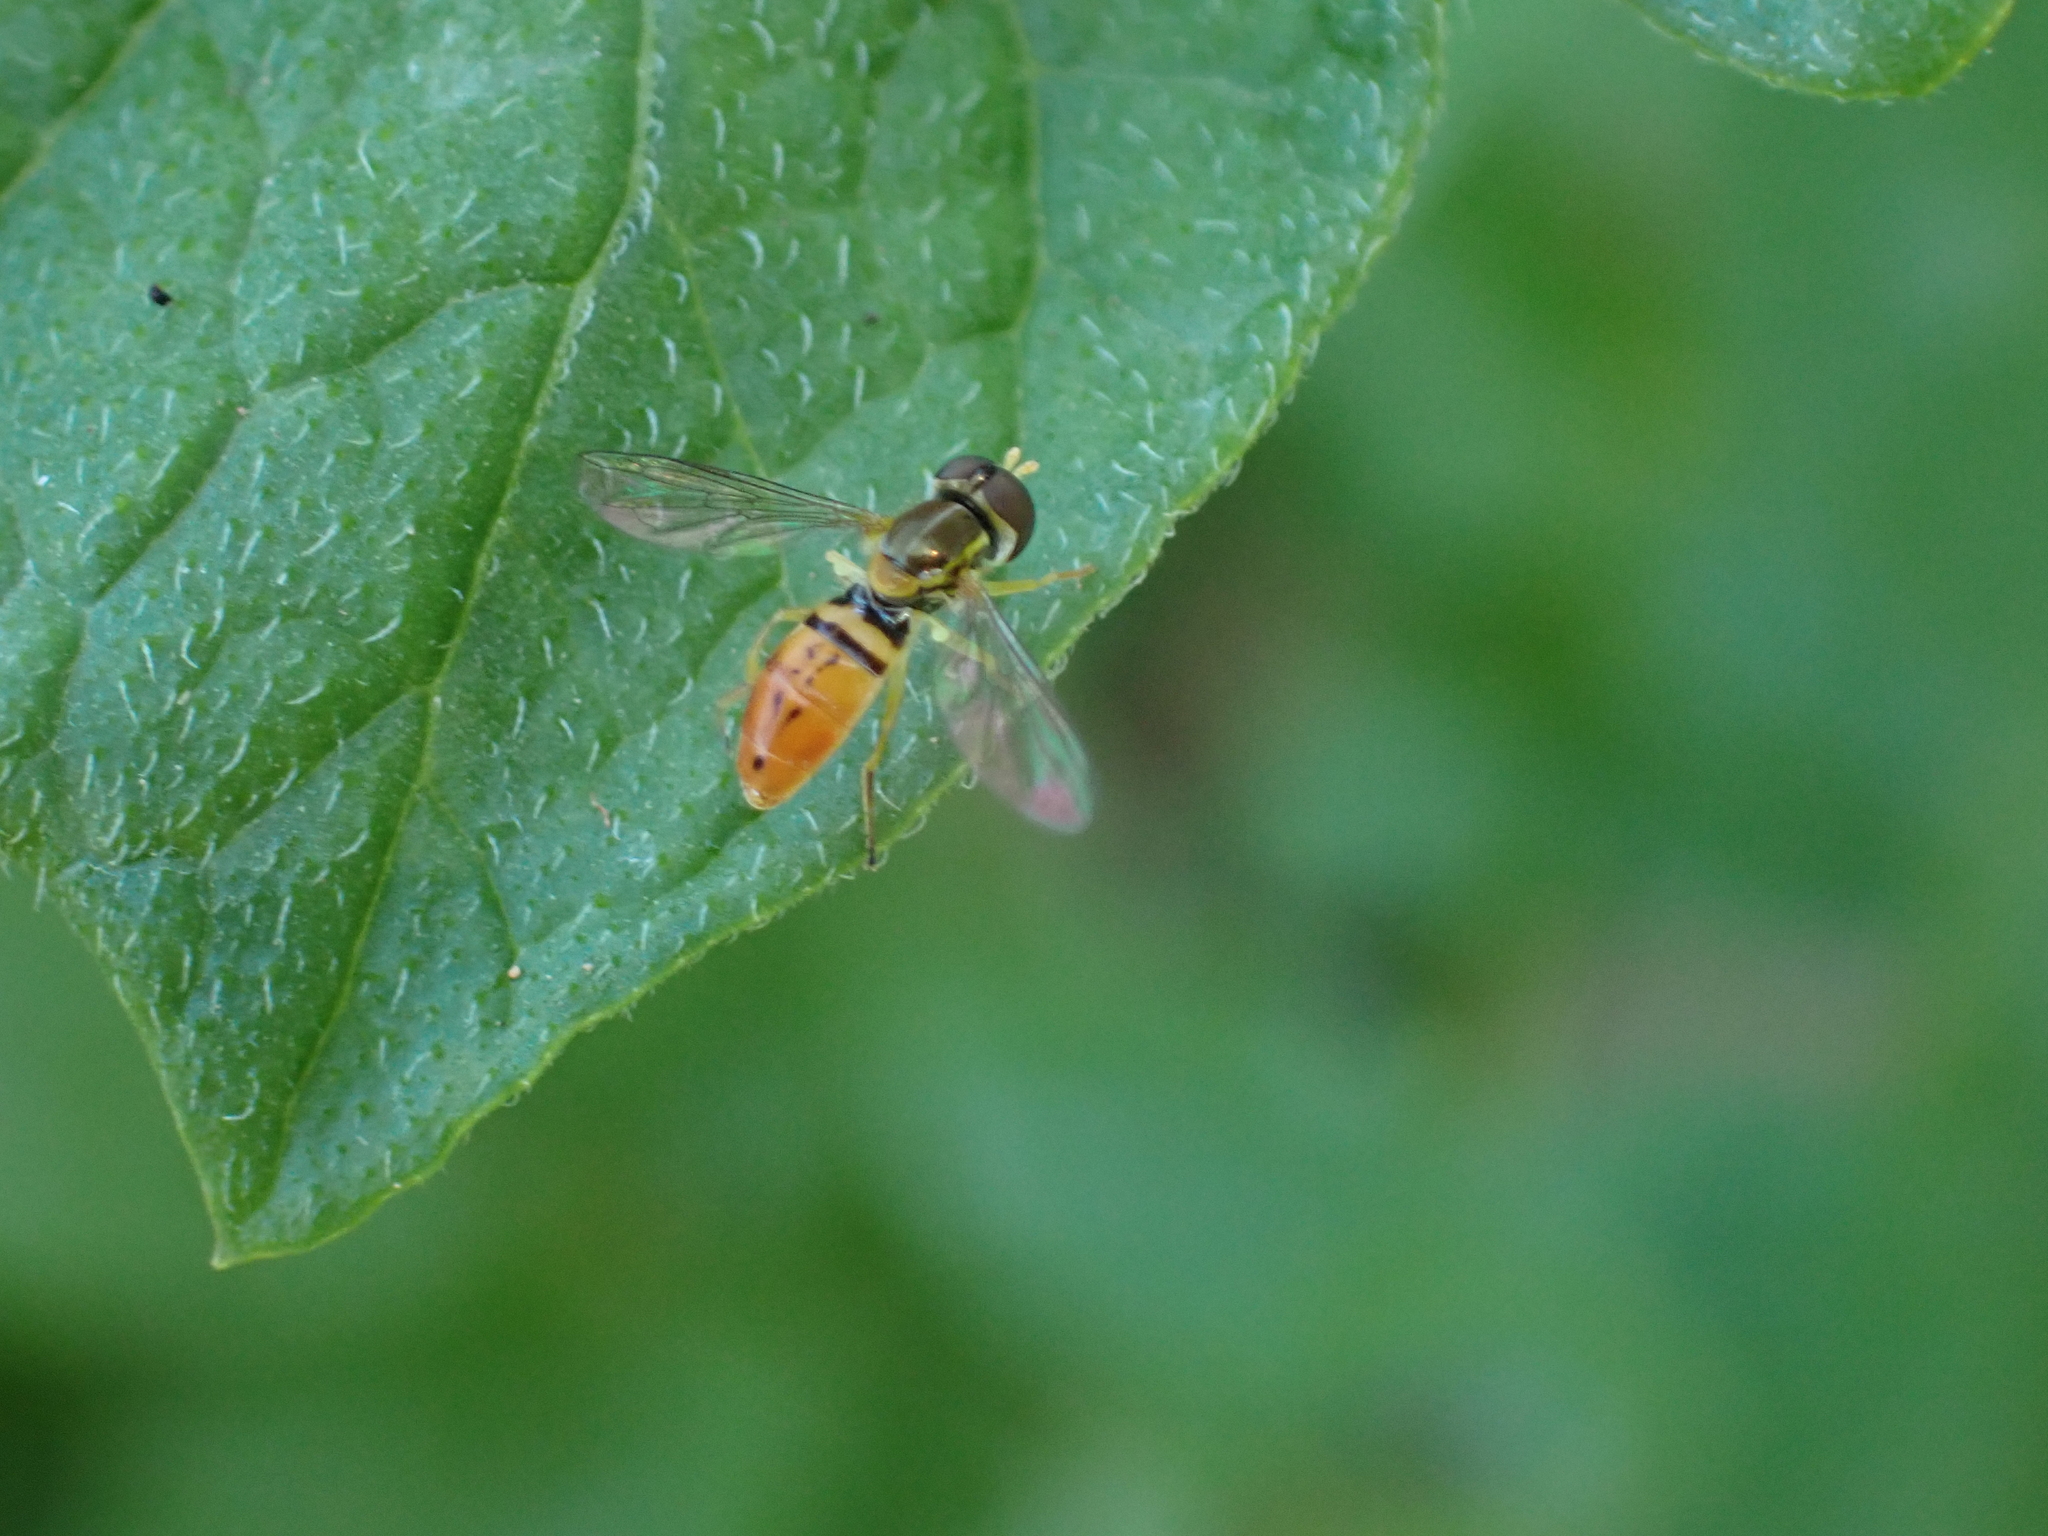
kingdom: Animalia
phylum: Arthropoda
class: Insecta
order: Diptera
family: Syrphidae
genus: Toxomerus
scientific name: Toxomerus marginatus
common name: Syrphid fly
